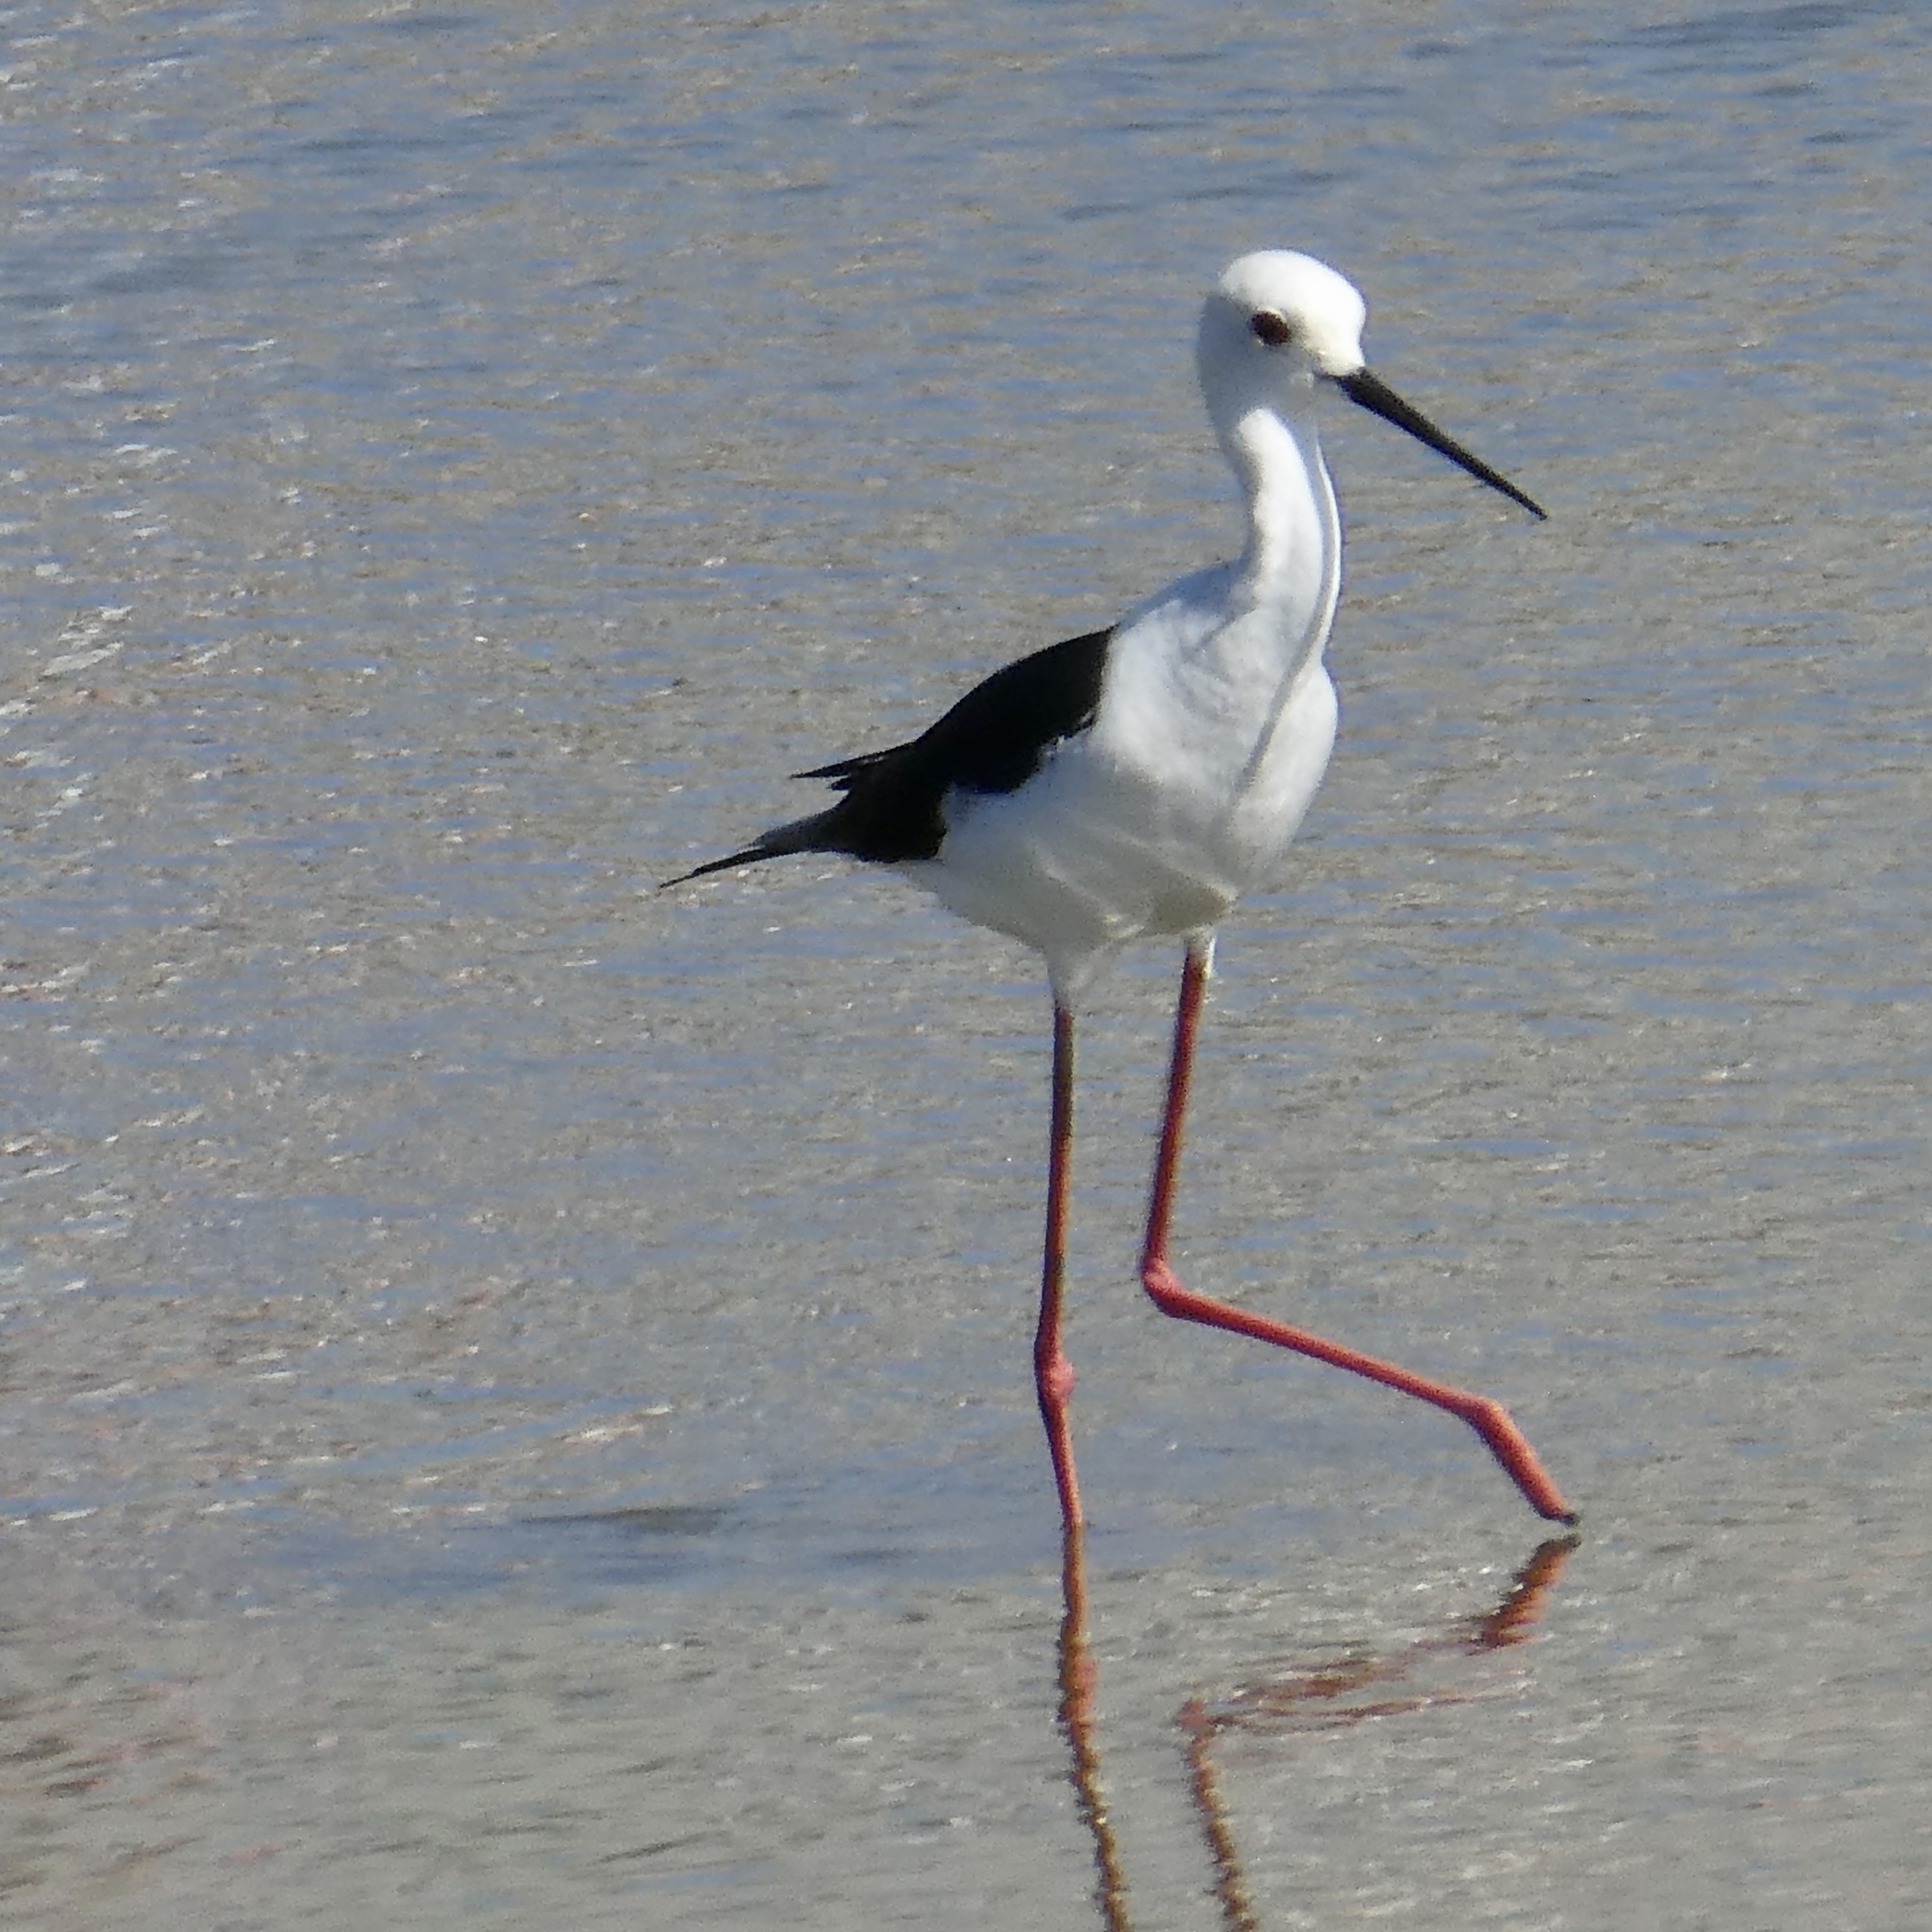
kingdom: Animalia
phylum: Chordata
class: Aves
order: Charadriiformes
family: Recurvirostridae
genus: Himantopus
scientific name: Himantopus himantopus
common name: Black-winged stilt
